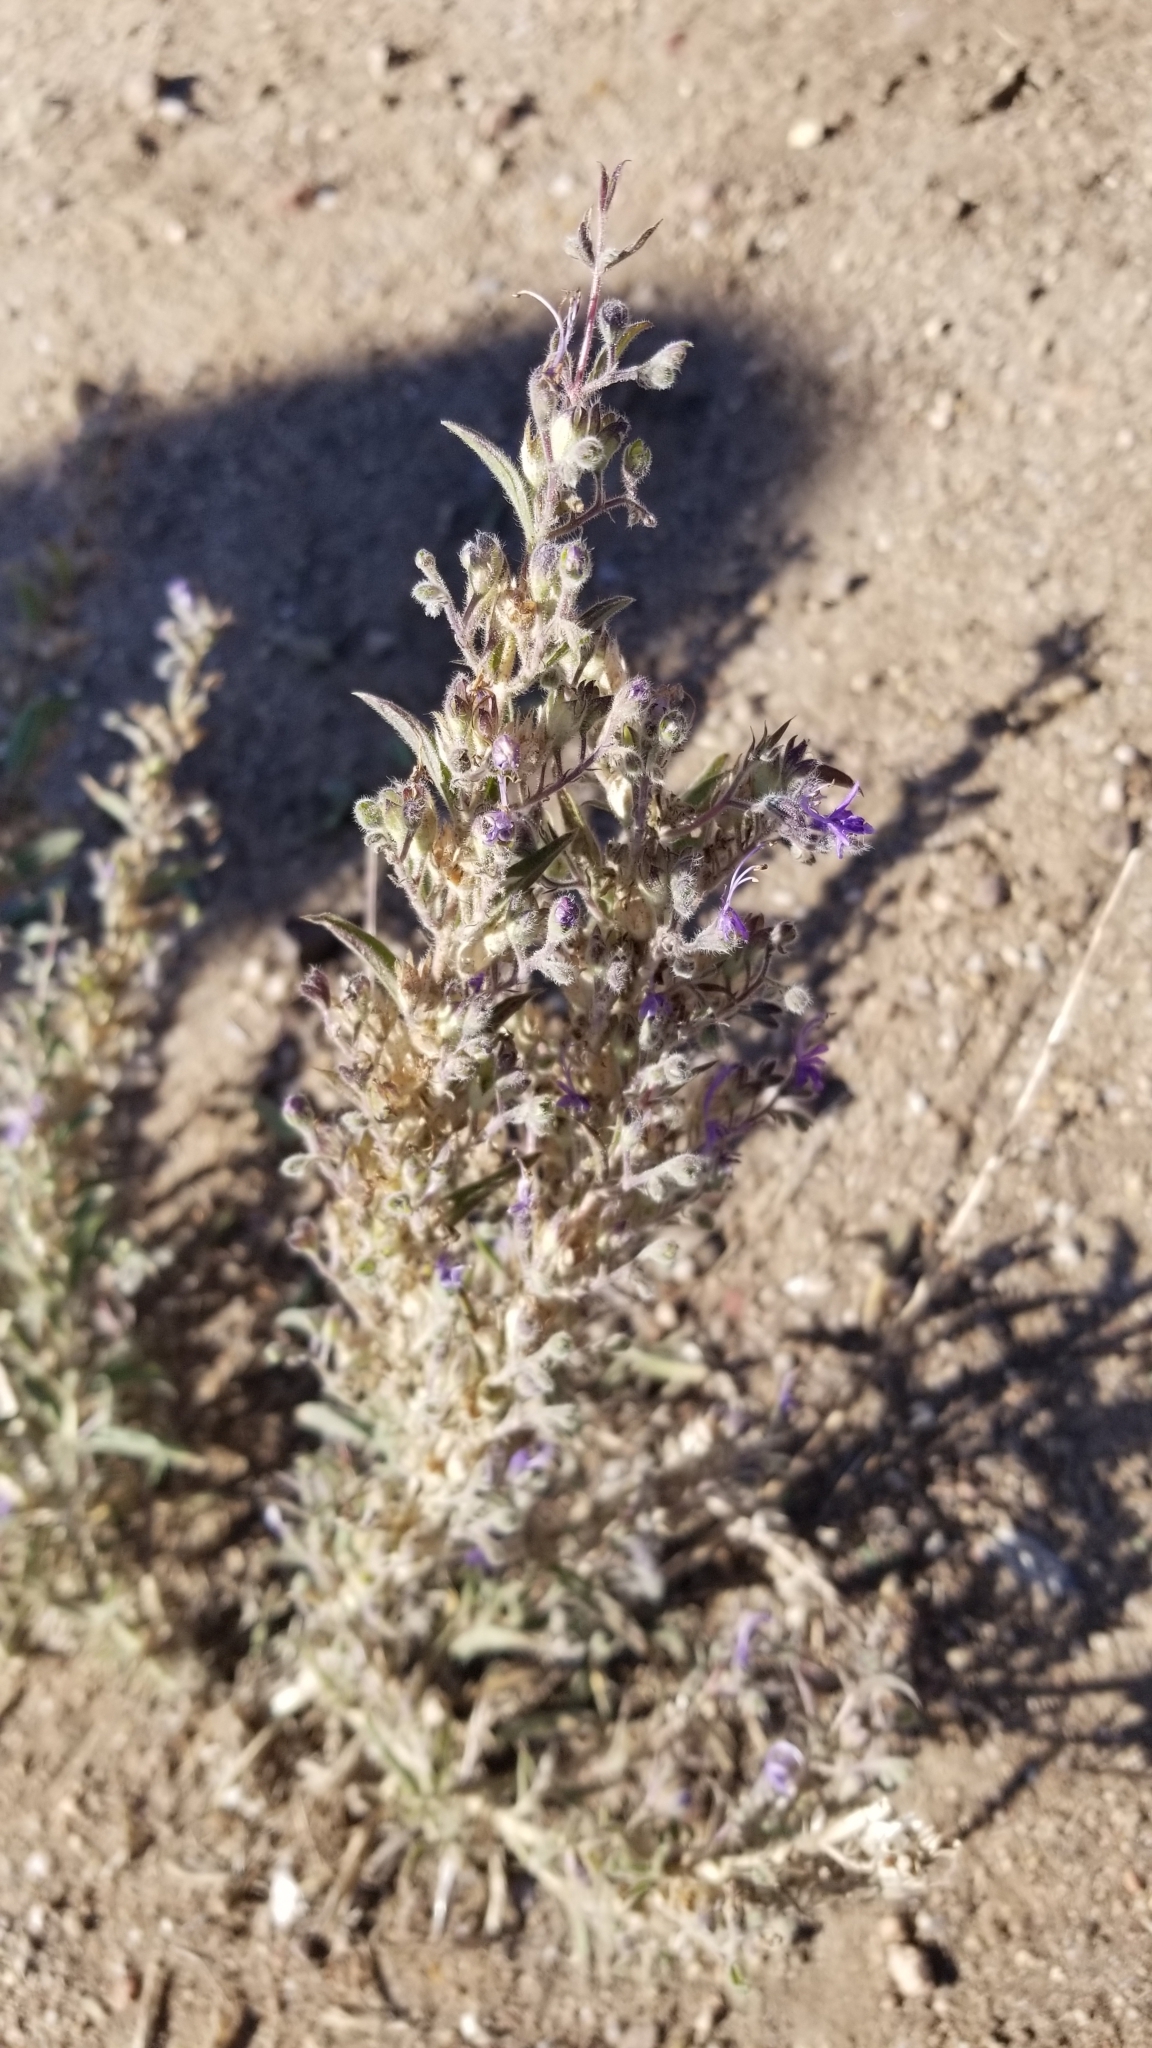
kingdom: Plantae
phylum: Tracheophyta
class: Magnoliopsida
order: Lamiales
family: Lamiaceae
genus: Trichostema
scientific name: Trichostema lanceolatum
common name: Vinegar-weed
